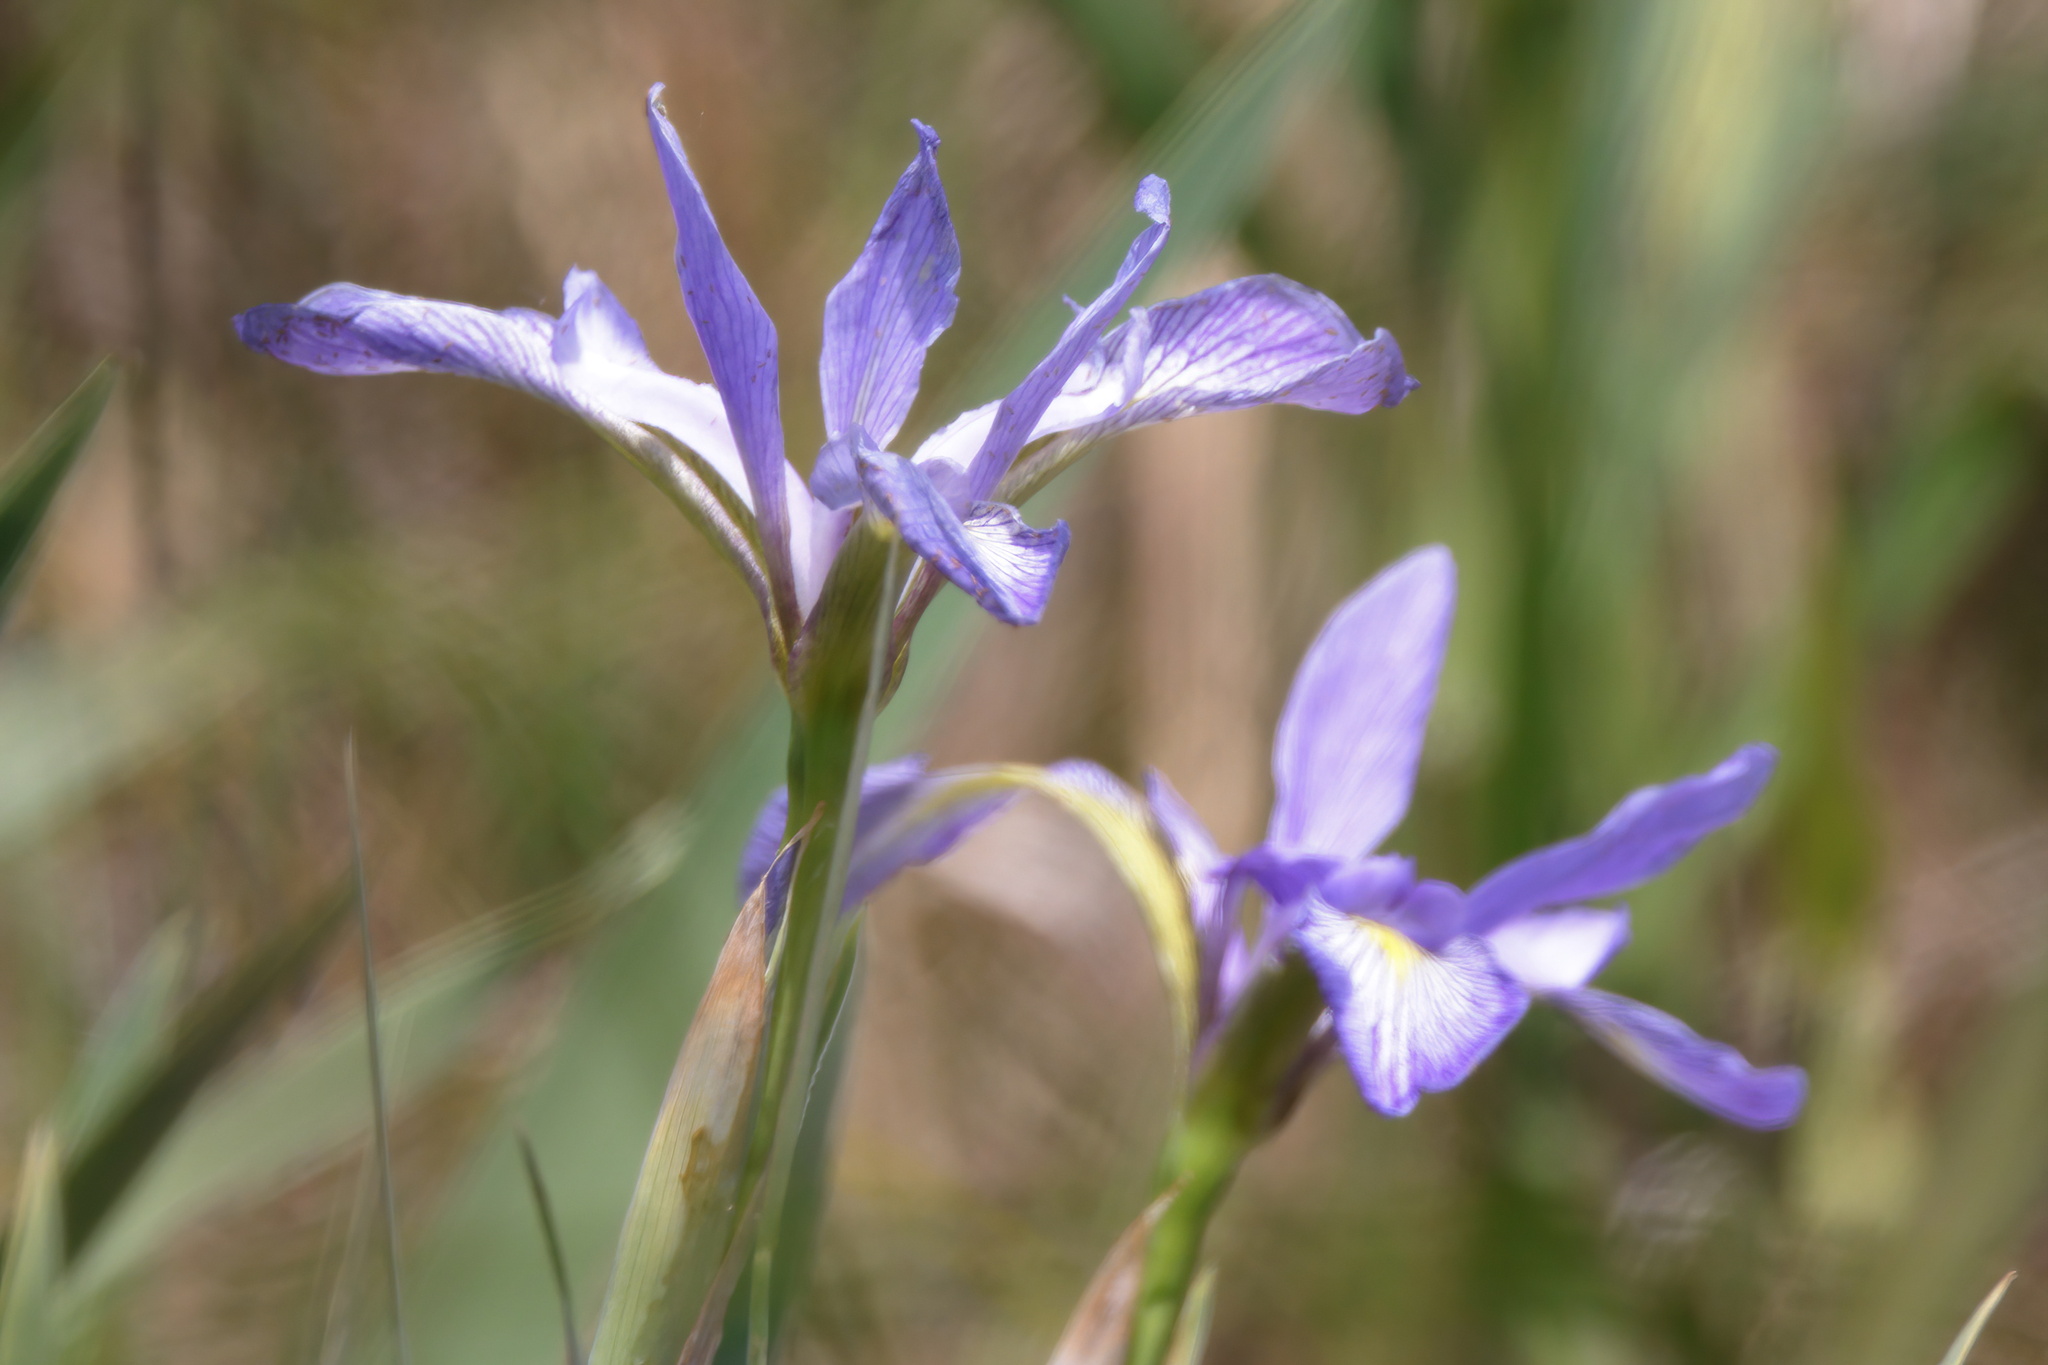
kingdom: Plantae
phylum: Tracheophyta
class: Liliopsida
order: Asparagales
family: Iridaceae
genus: Iris
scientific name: Iris virginica
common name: Southern blue flag
